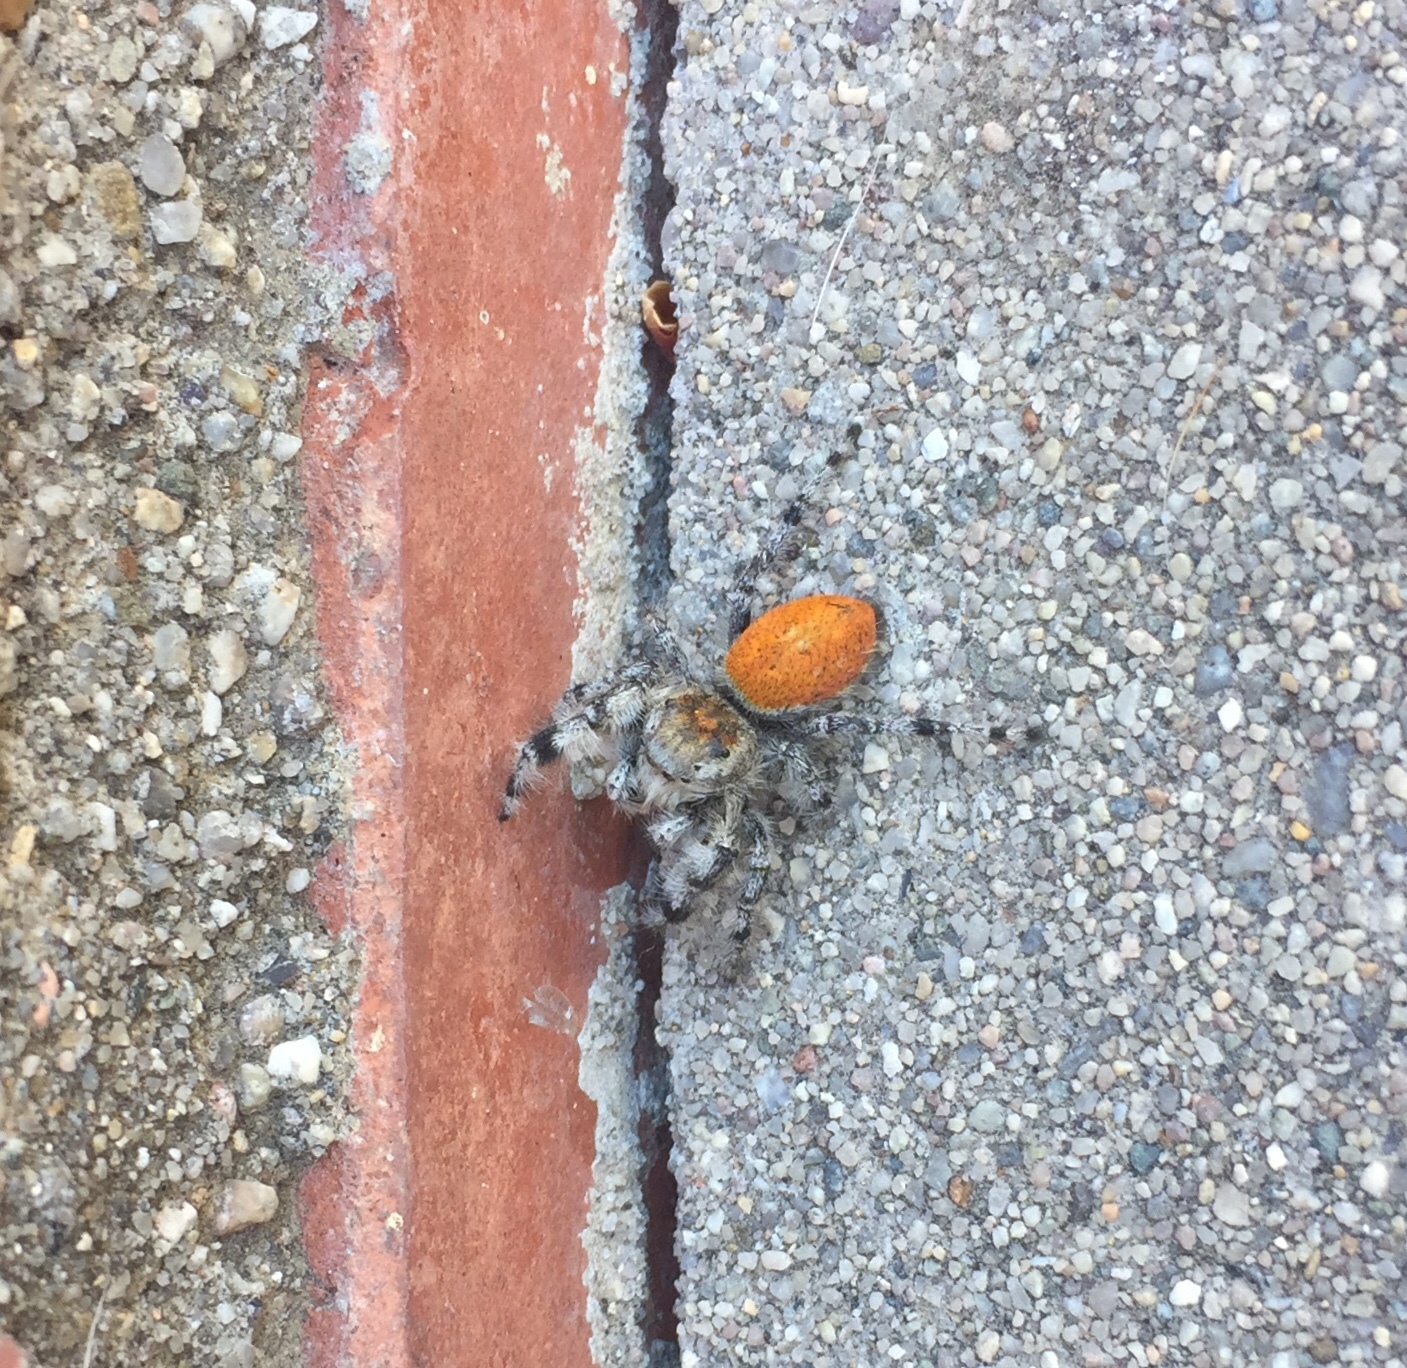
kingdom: Animalia
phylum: Arthropoda
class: Arachnida
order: Araneae
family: Salticidae
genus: Phidippus
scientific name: Phidippus adumbratus
